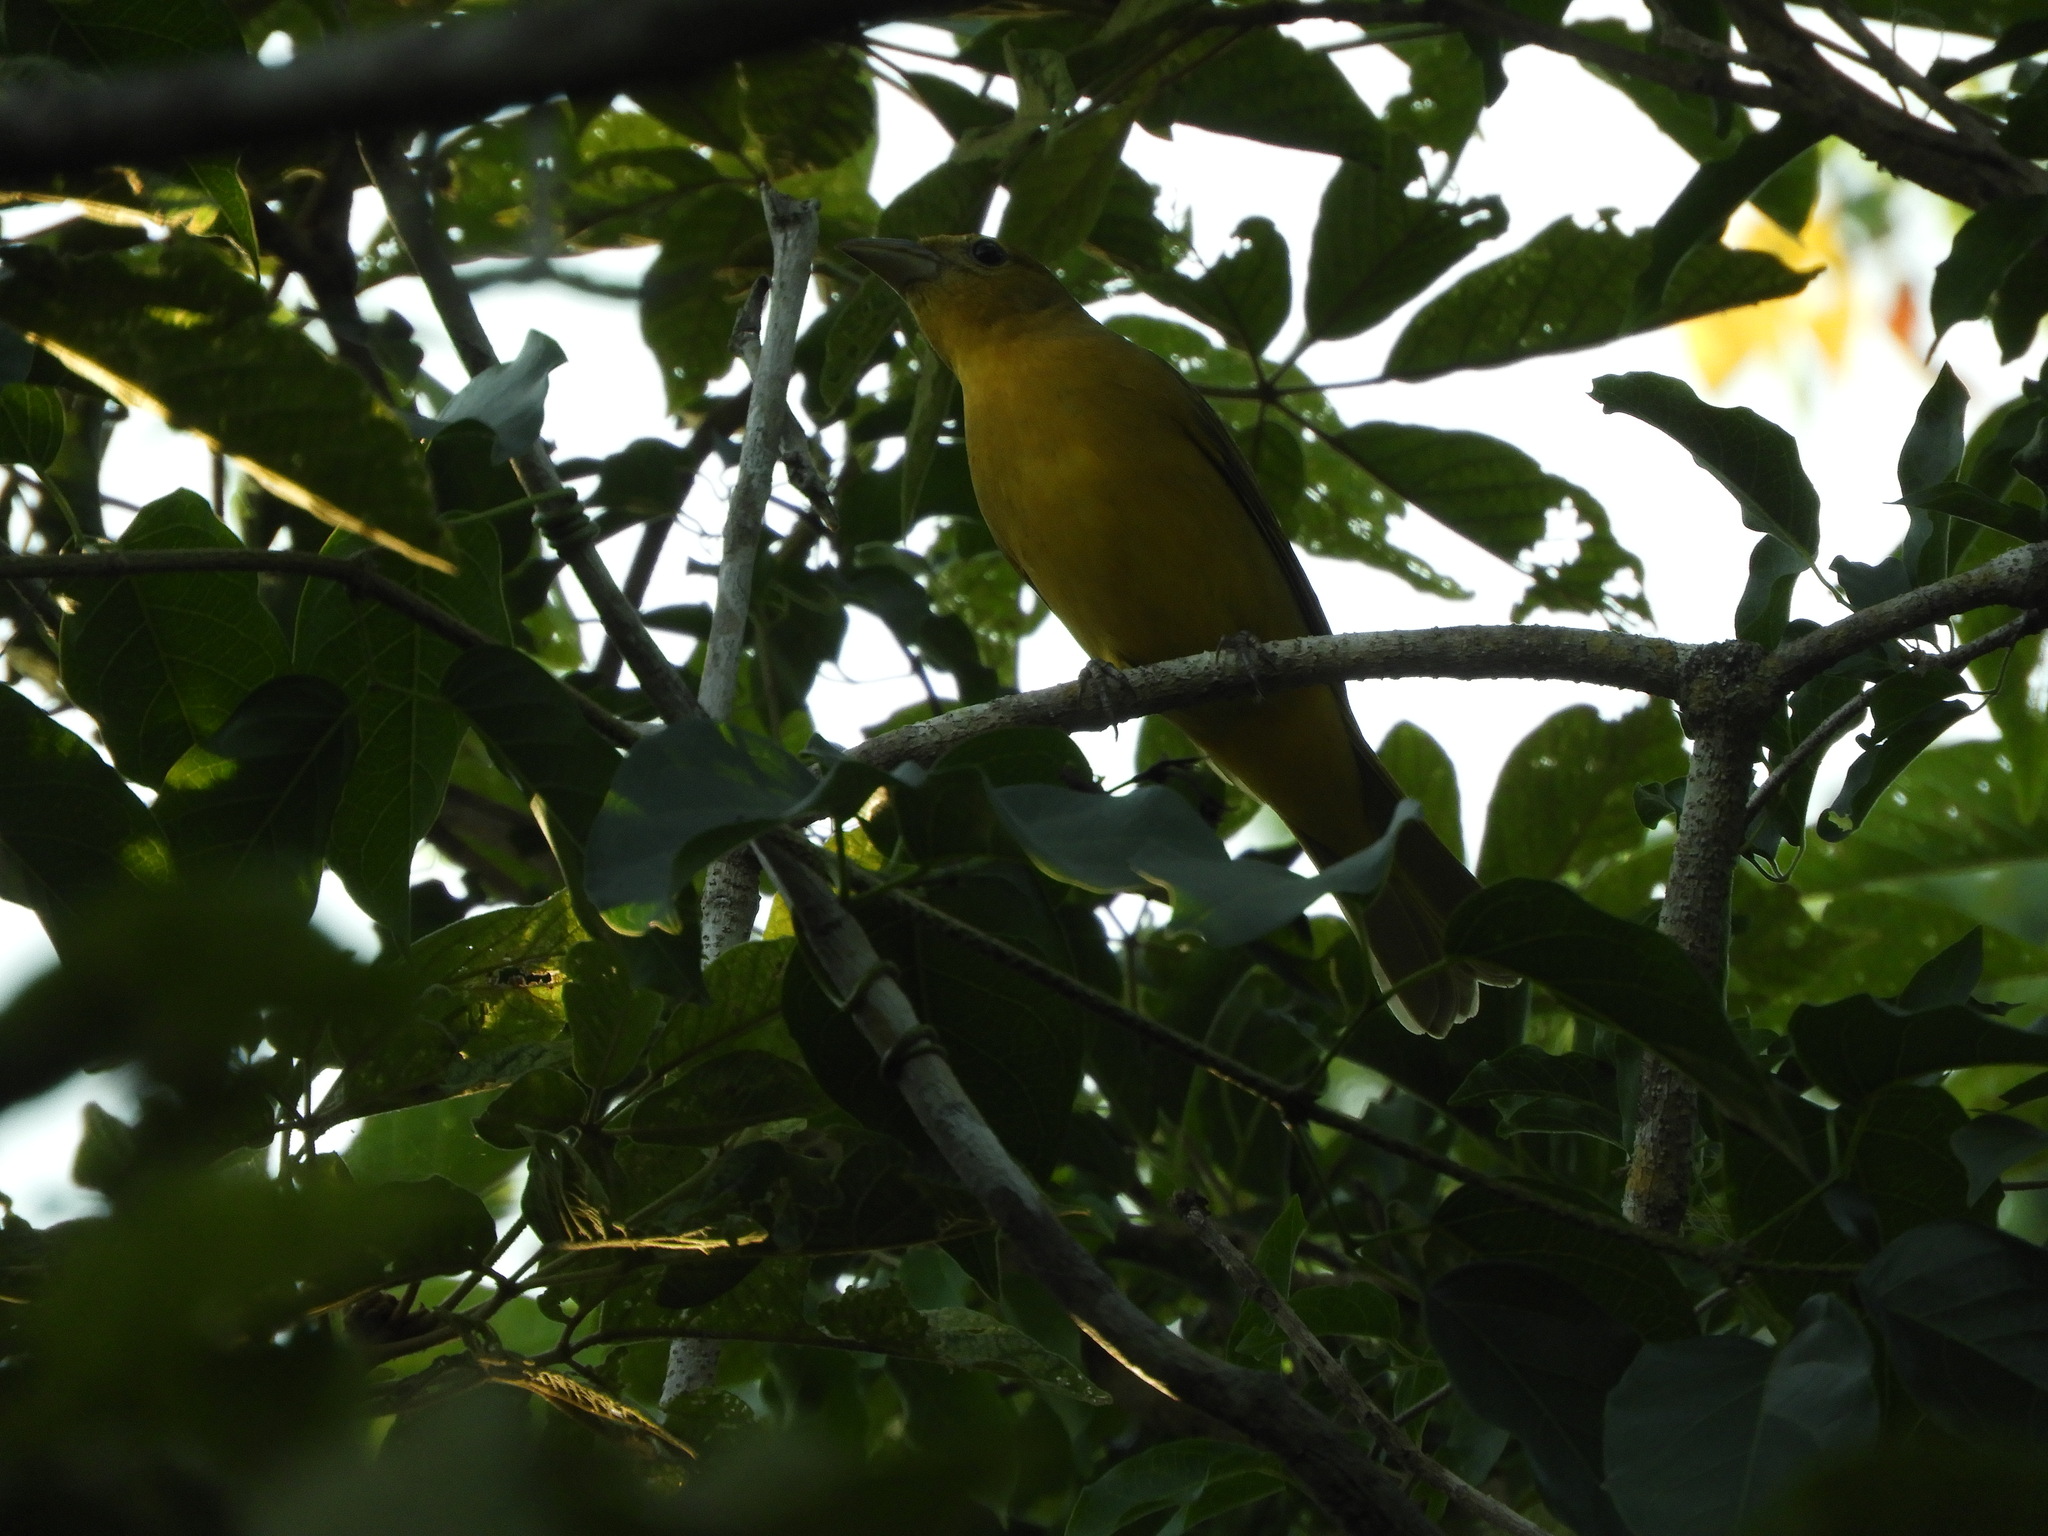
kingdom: Animalia
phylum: Chordata
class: Aves
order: Passeriformes
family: Cardinalidae
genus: Piranga
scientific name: Piranga rubra
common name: Summer tanager
